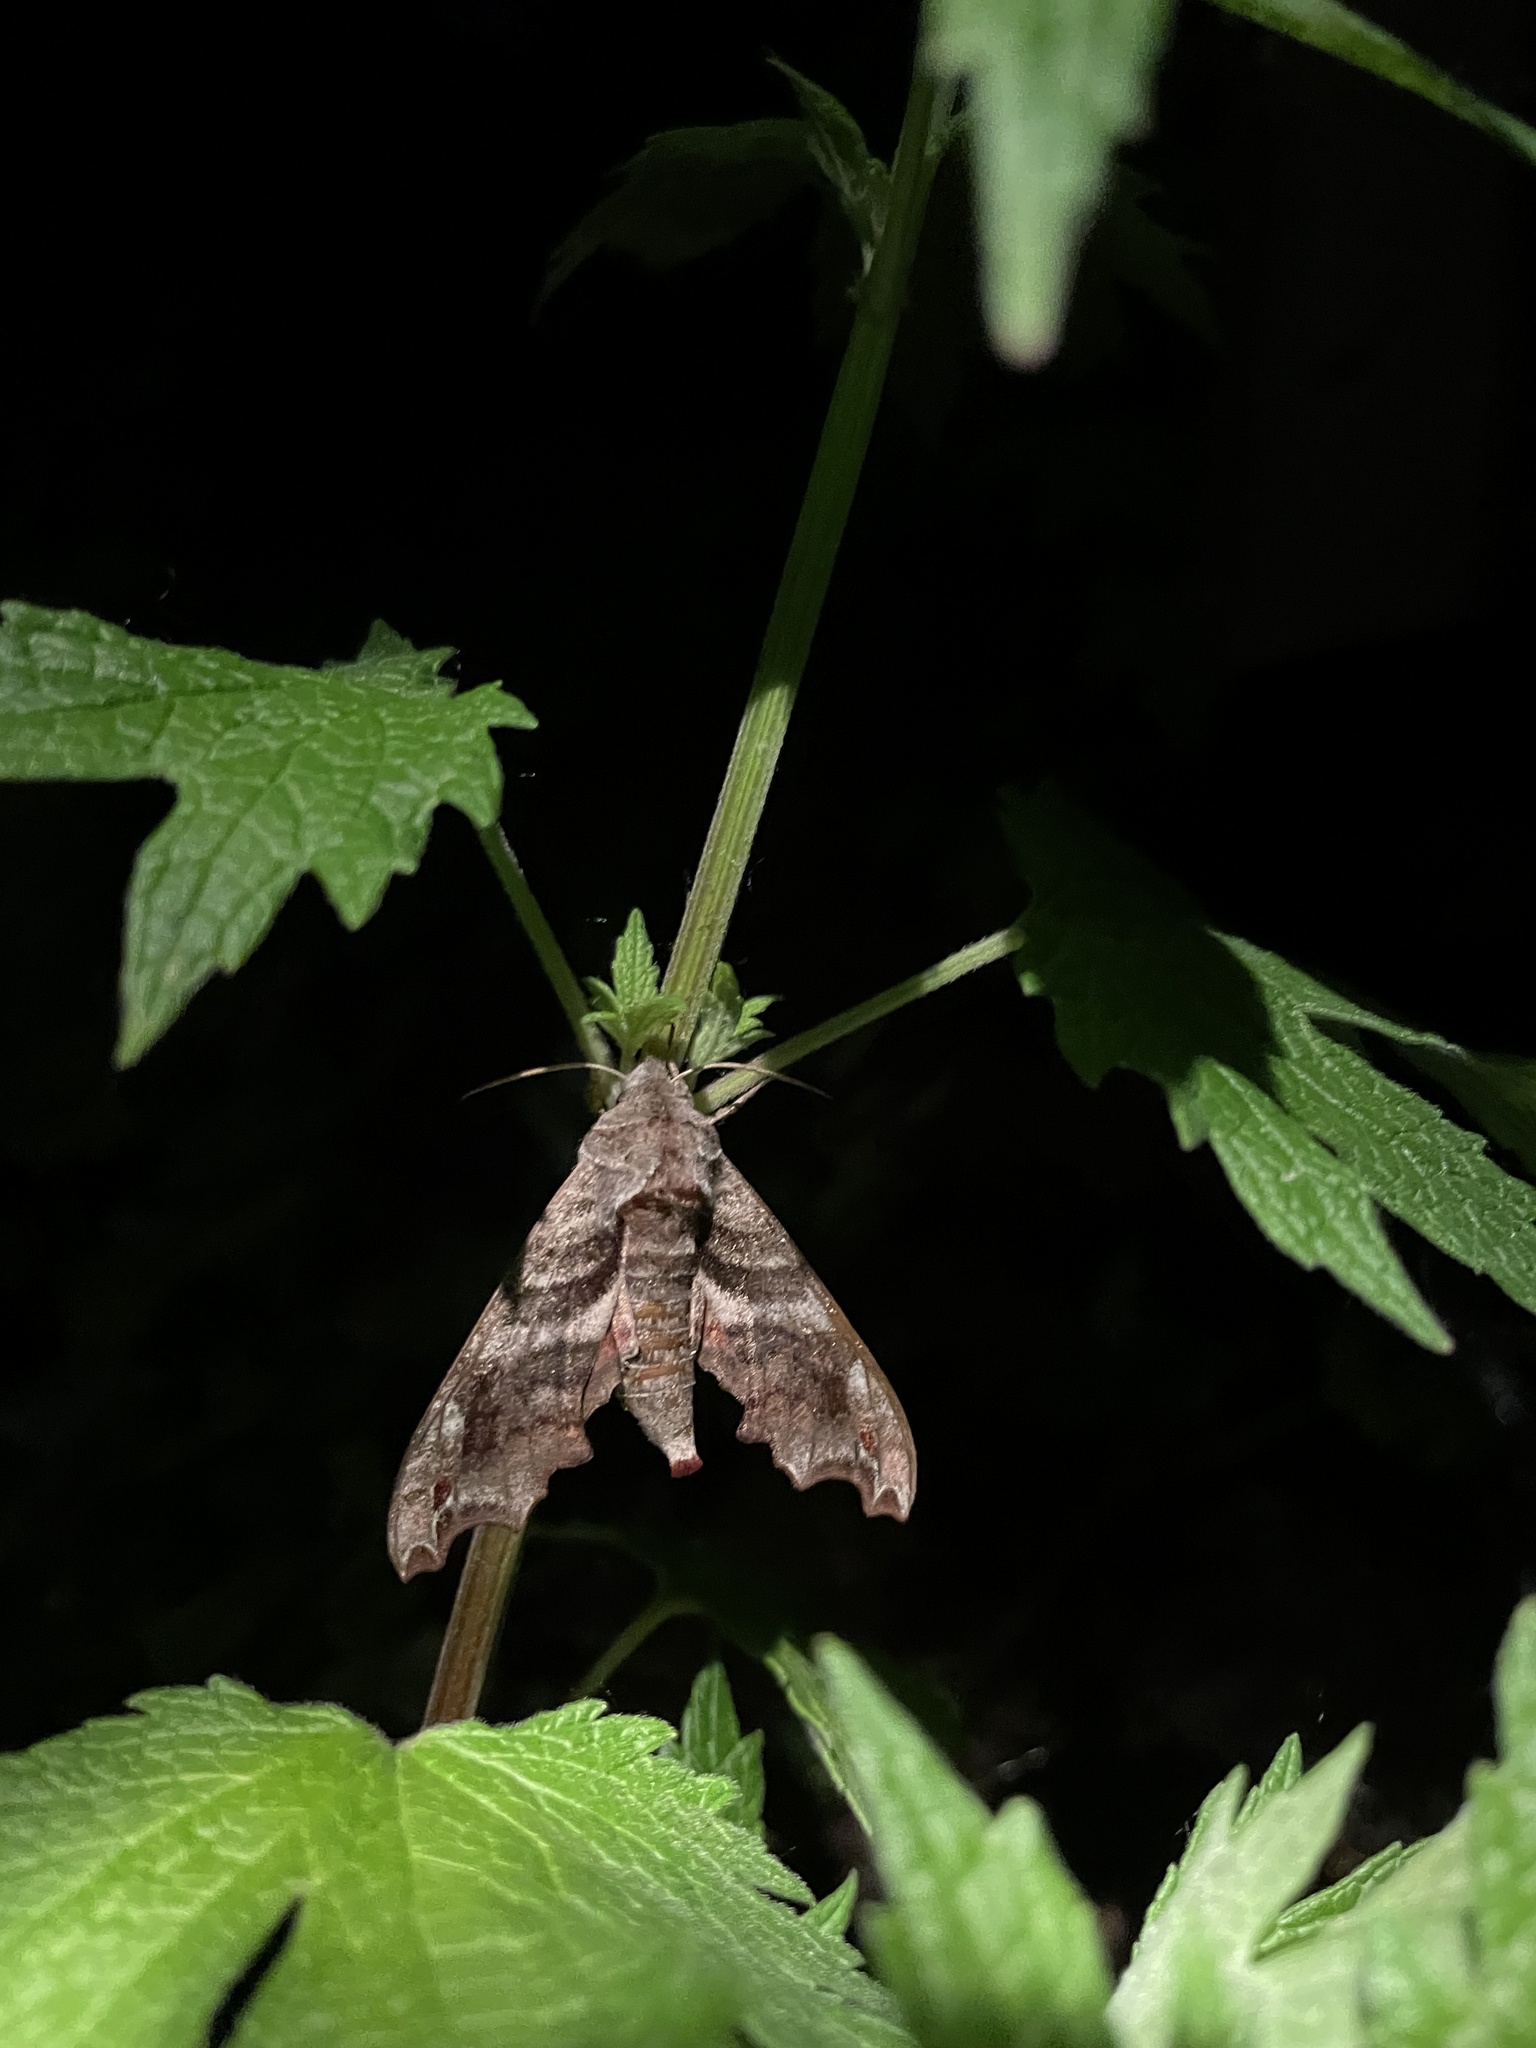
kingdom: Animalia
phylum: Arthropoda
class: Insecta
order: Lepidoptera
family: Sphingidae
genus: Deidamia
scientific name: Deidamia inscriptum
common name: Lettered sphinx
